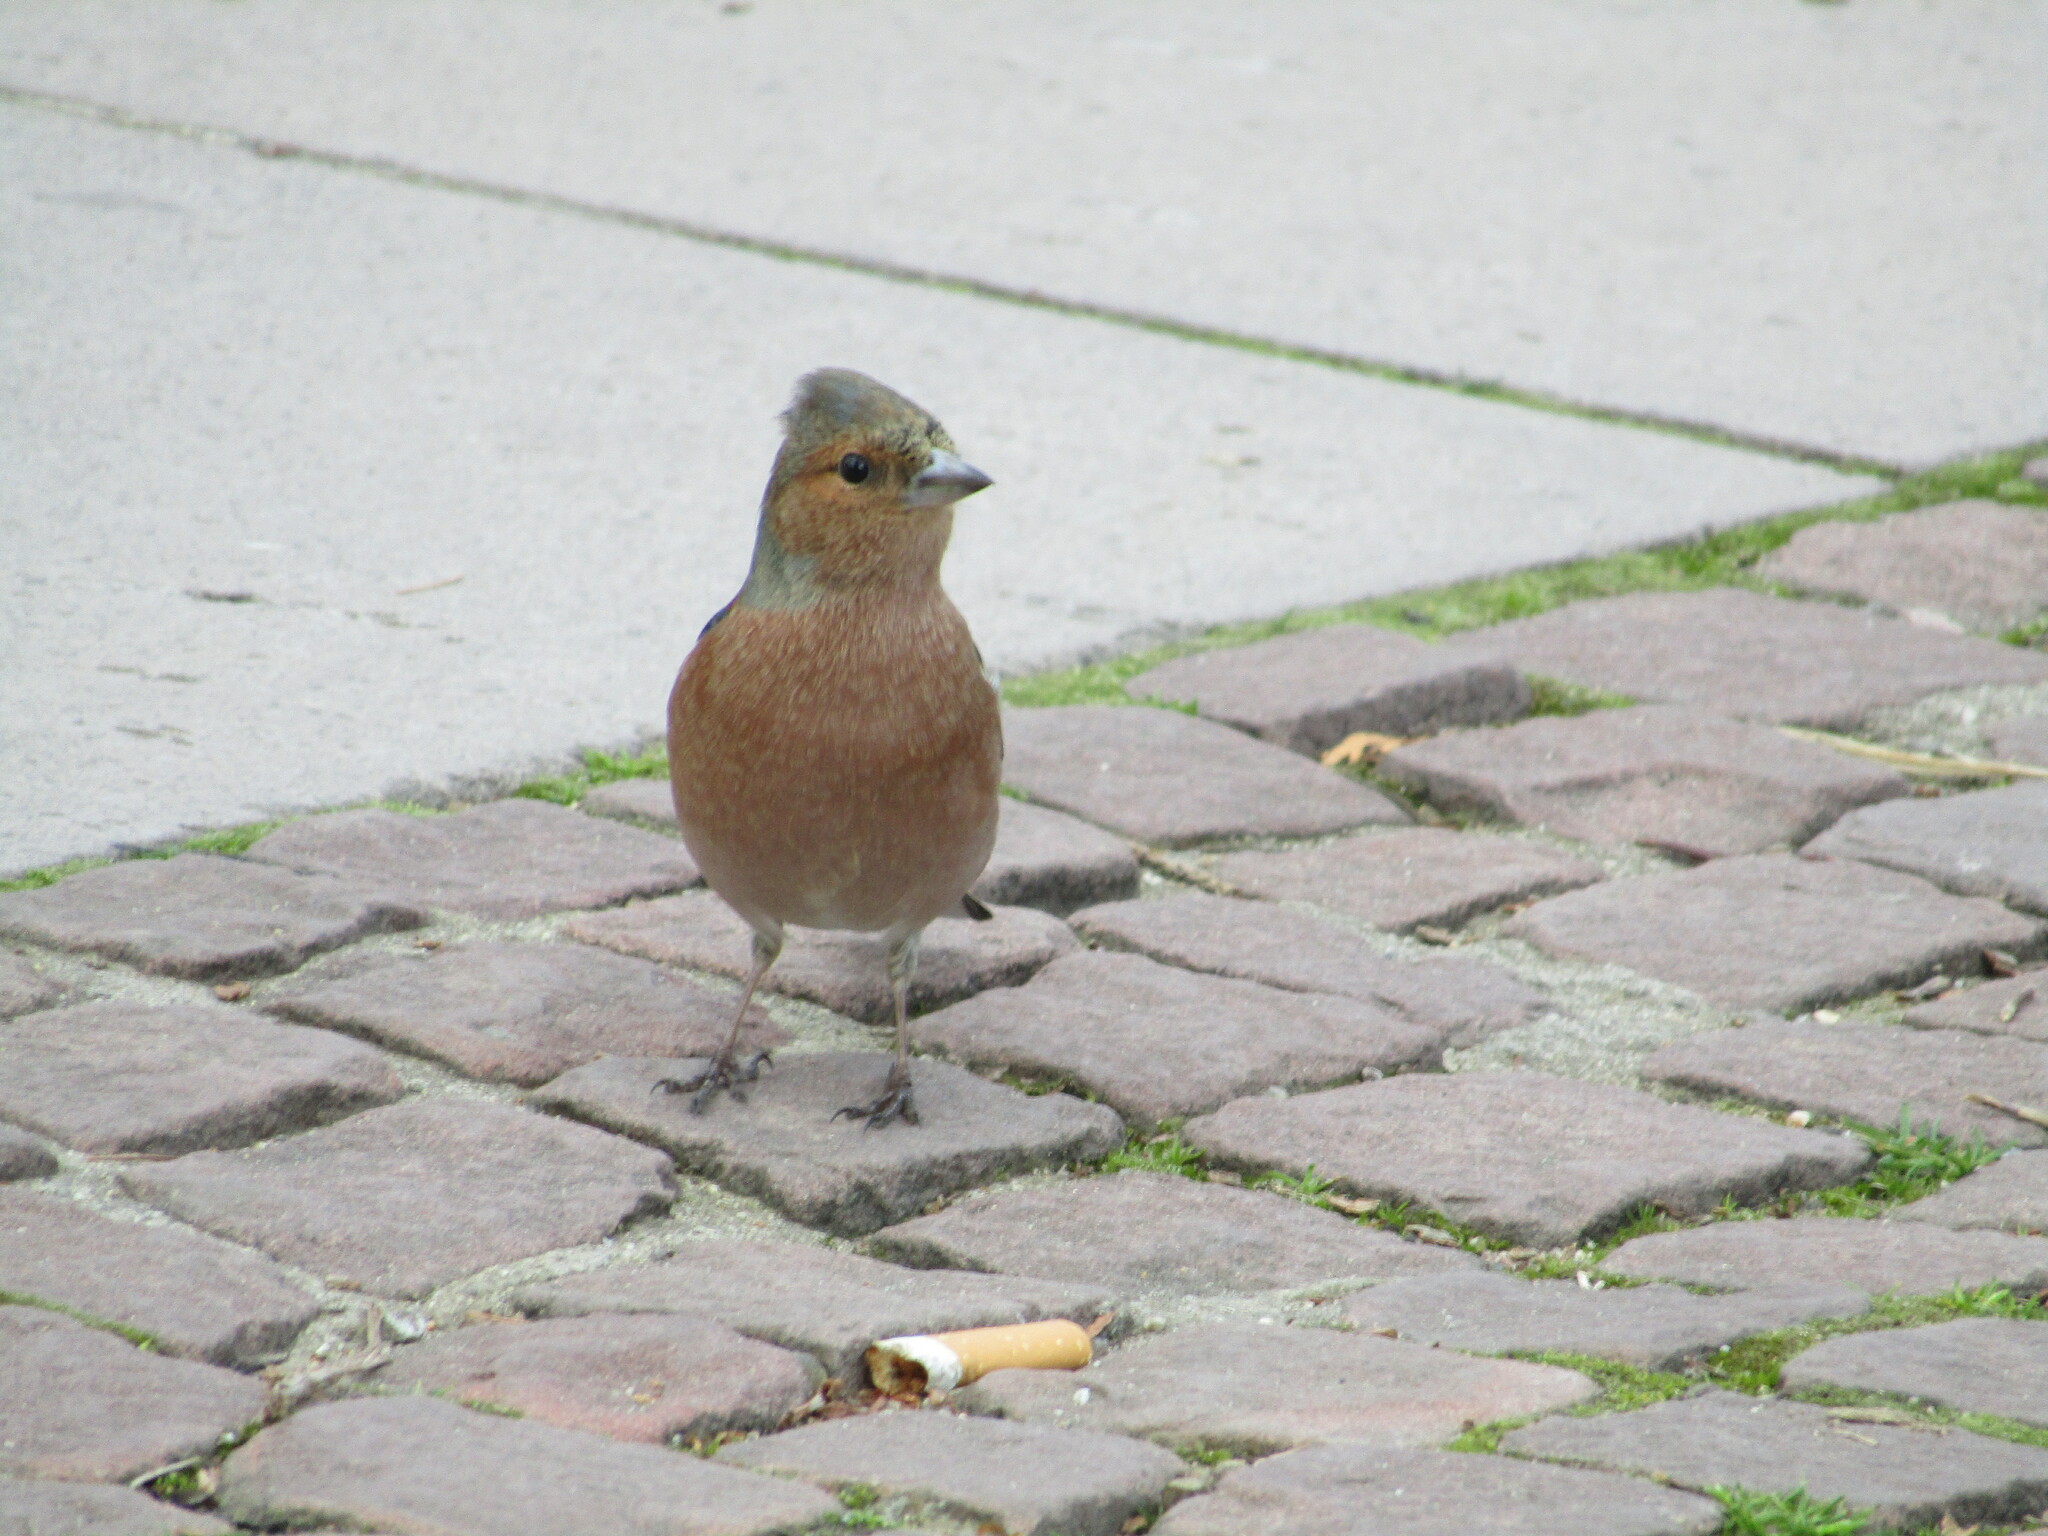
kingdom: Animalia
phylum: Chordata
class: Aves
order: Passeriformes
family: Fringillidae
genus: Fringilla
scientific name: Fringilla coelebs
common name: Common chaffinch
